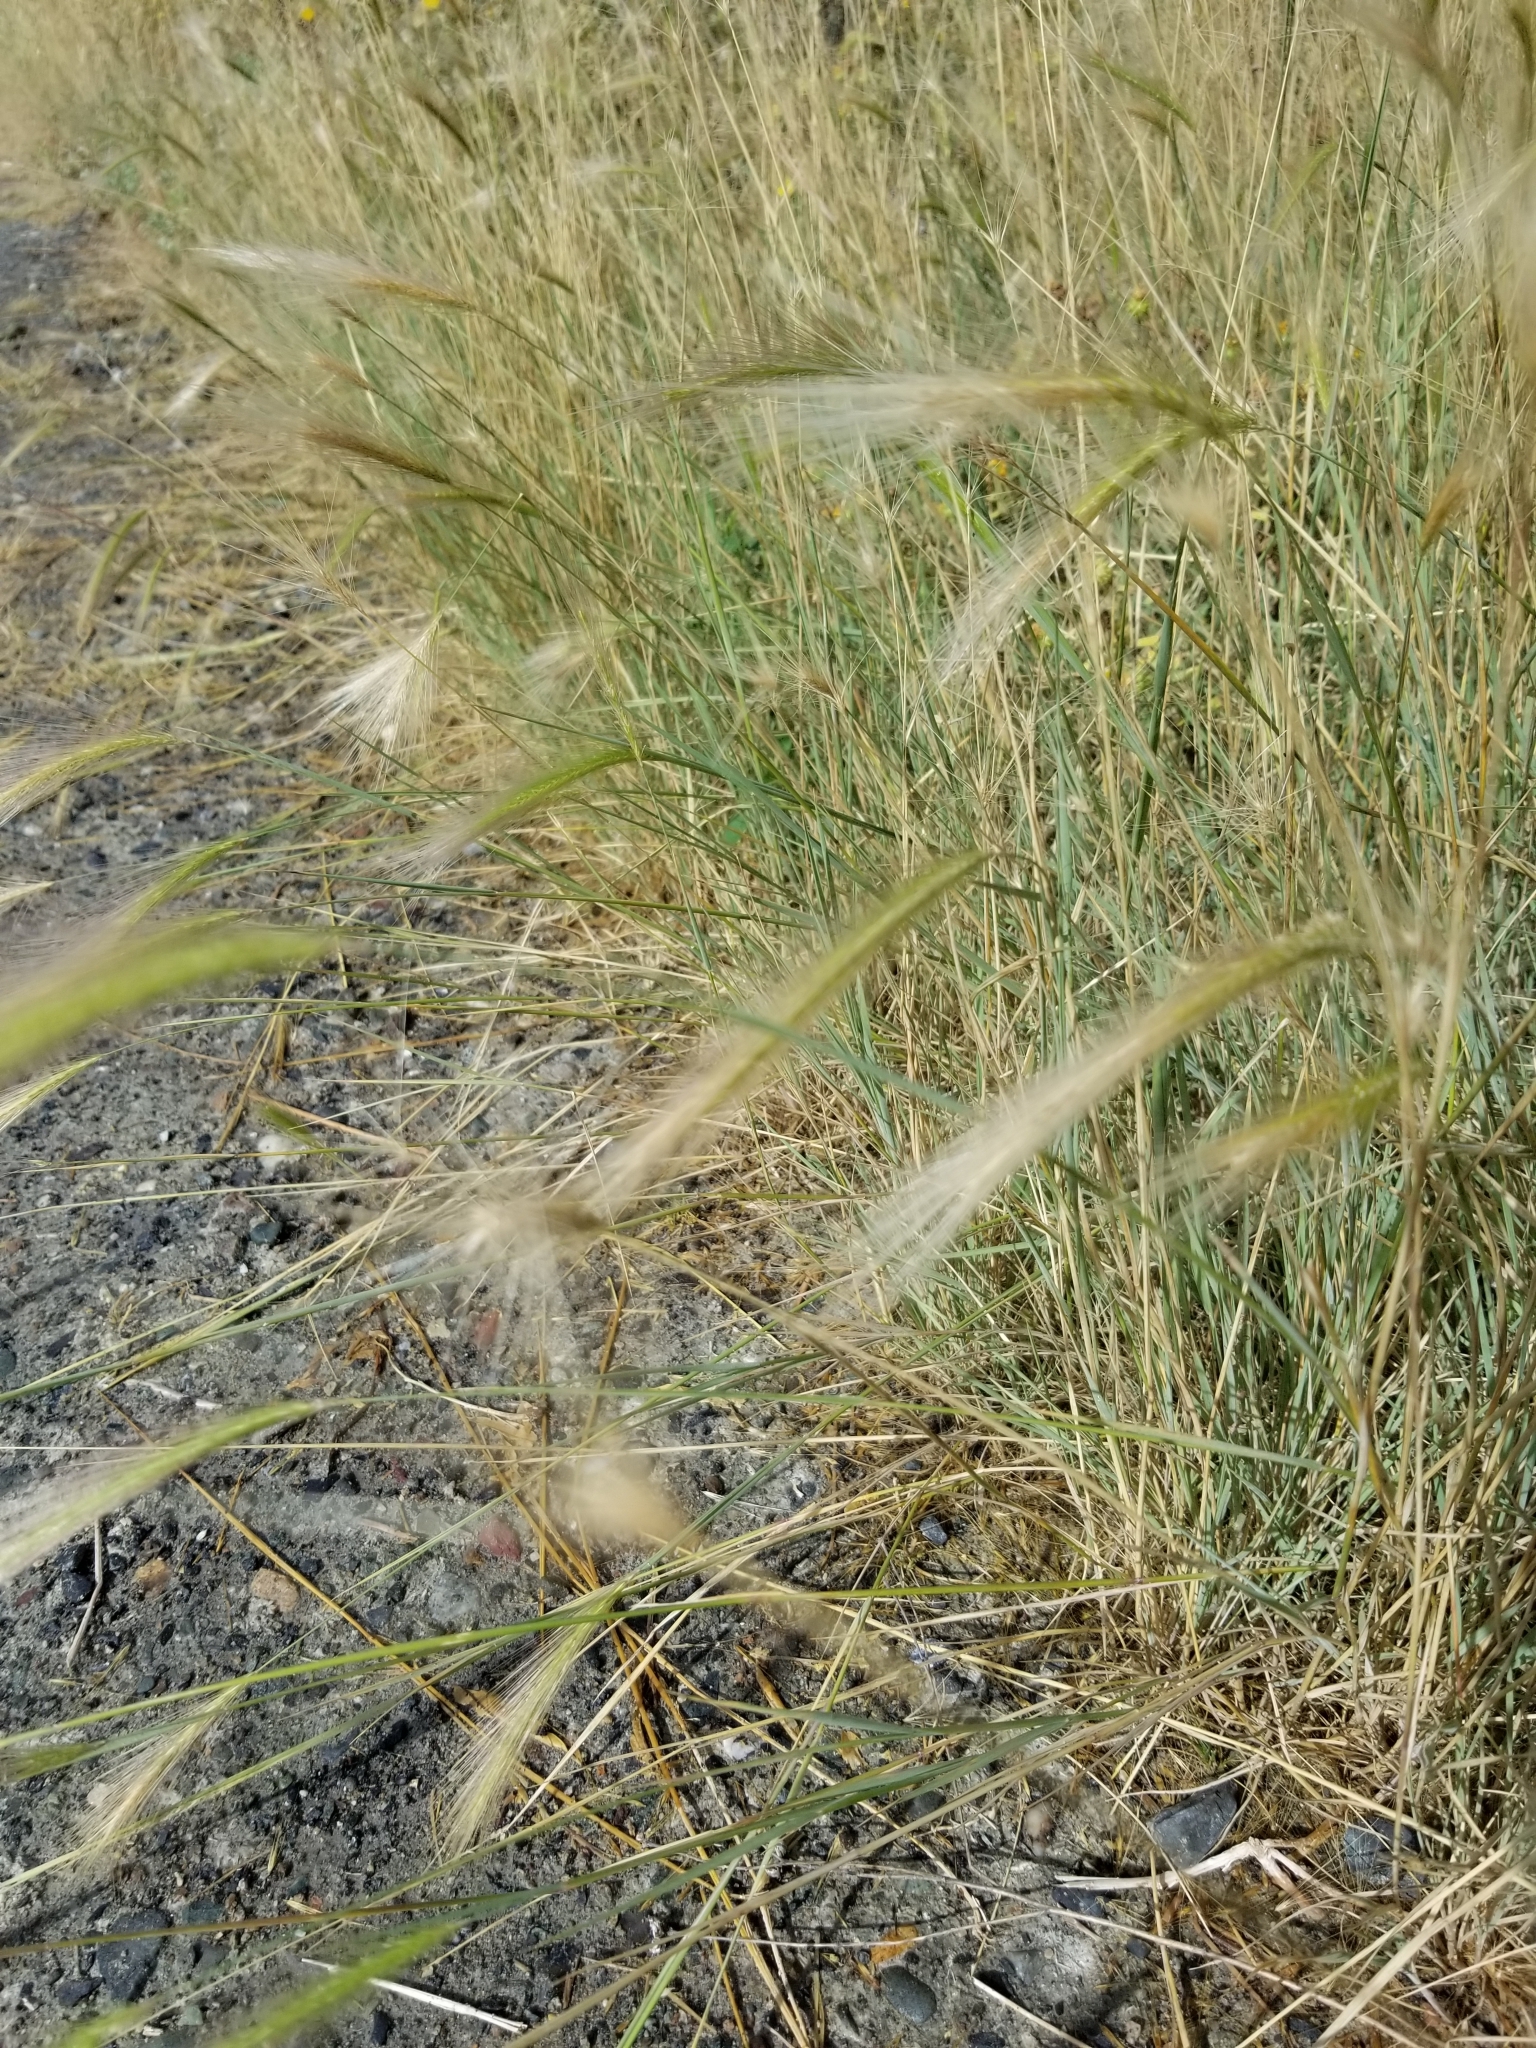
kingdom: Plantae
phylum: Tracheophyta
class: Liliopsida
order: Poales
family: Poaceae
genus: Hordeum
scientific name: Hordeum jubatum
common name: Foxtail barley
